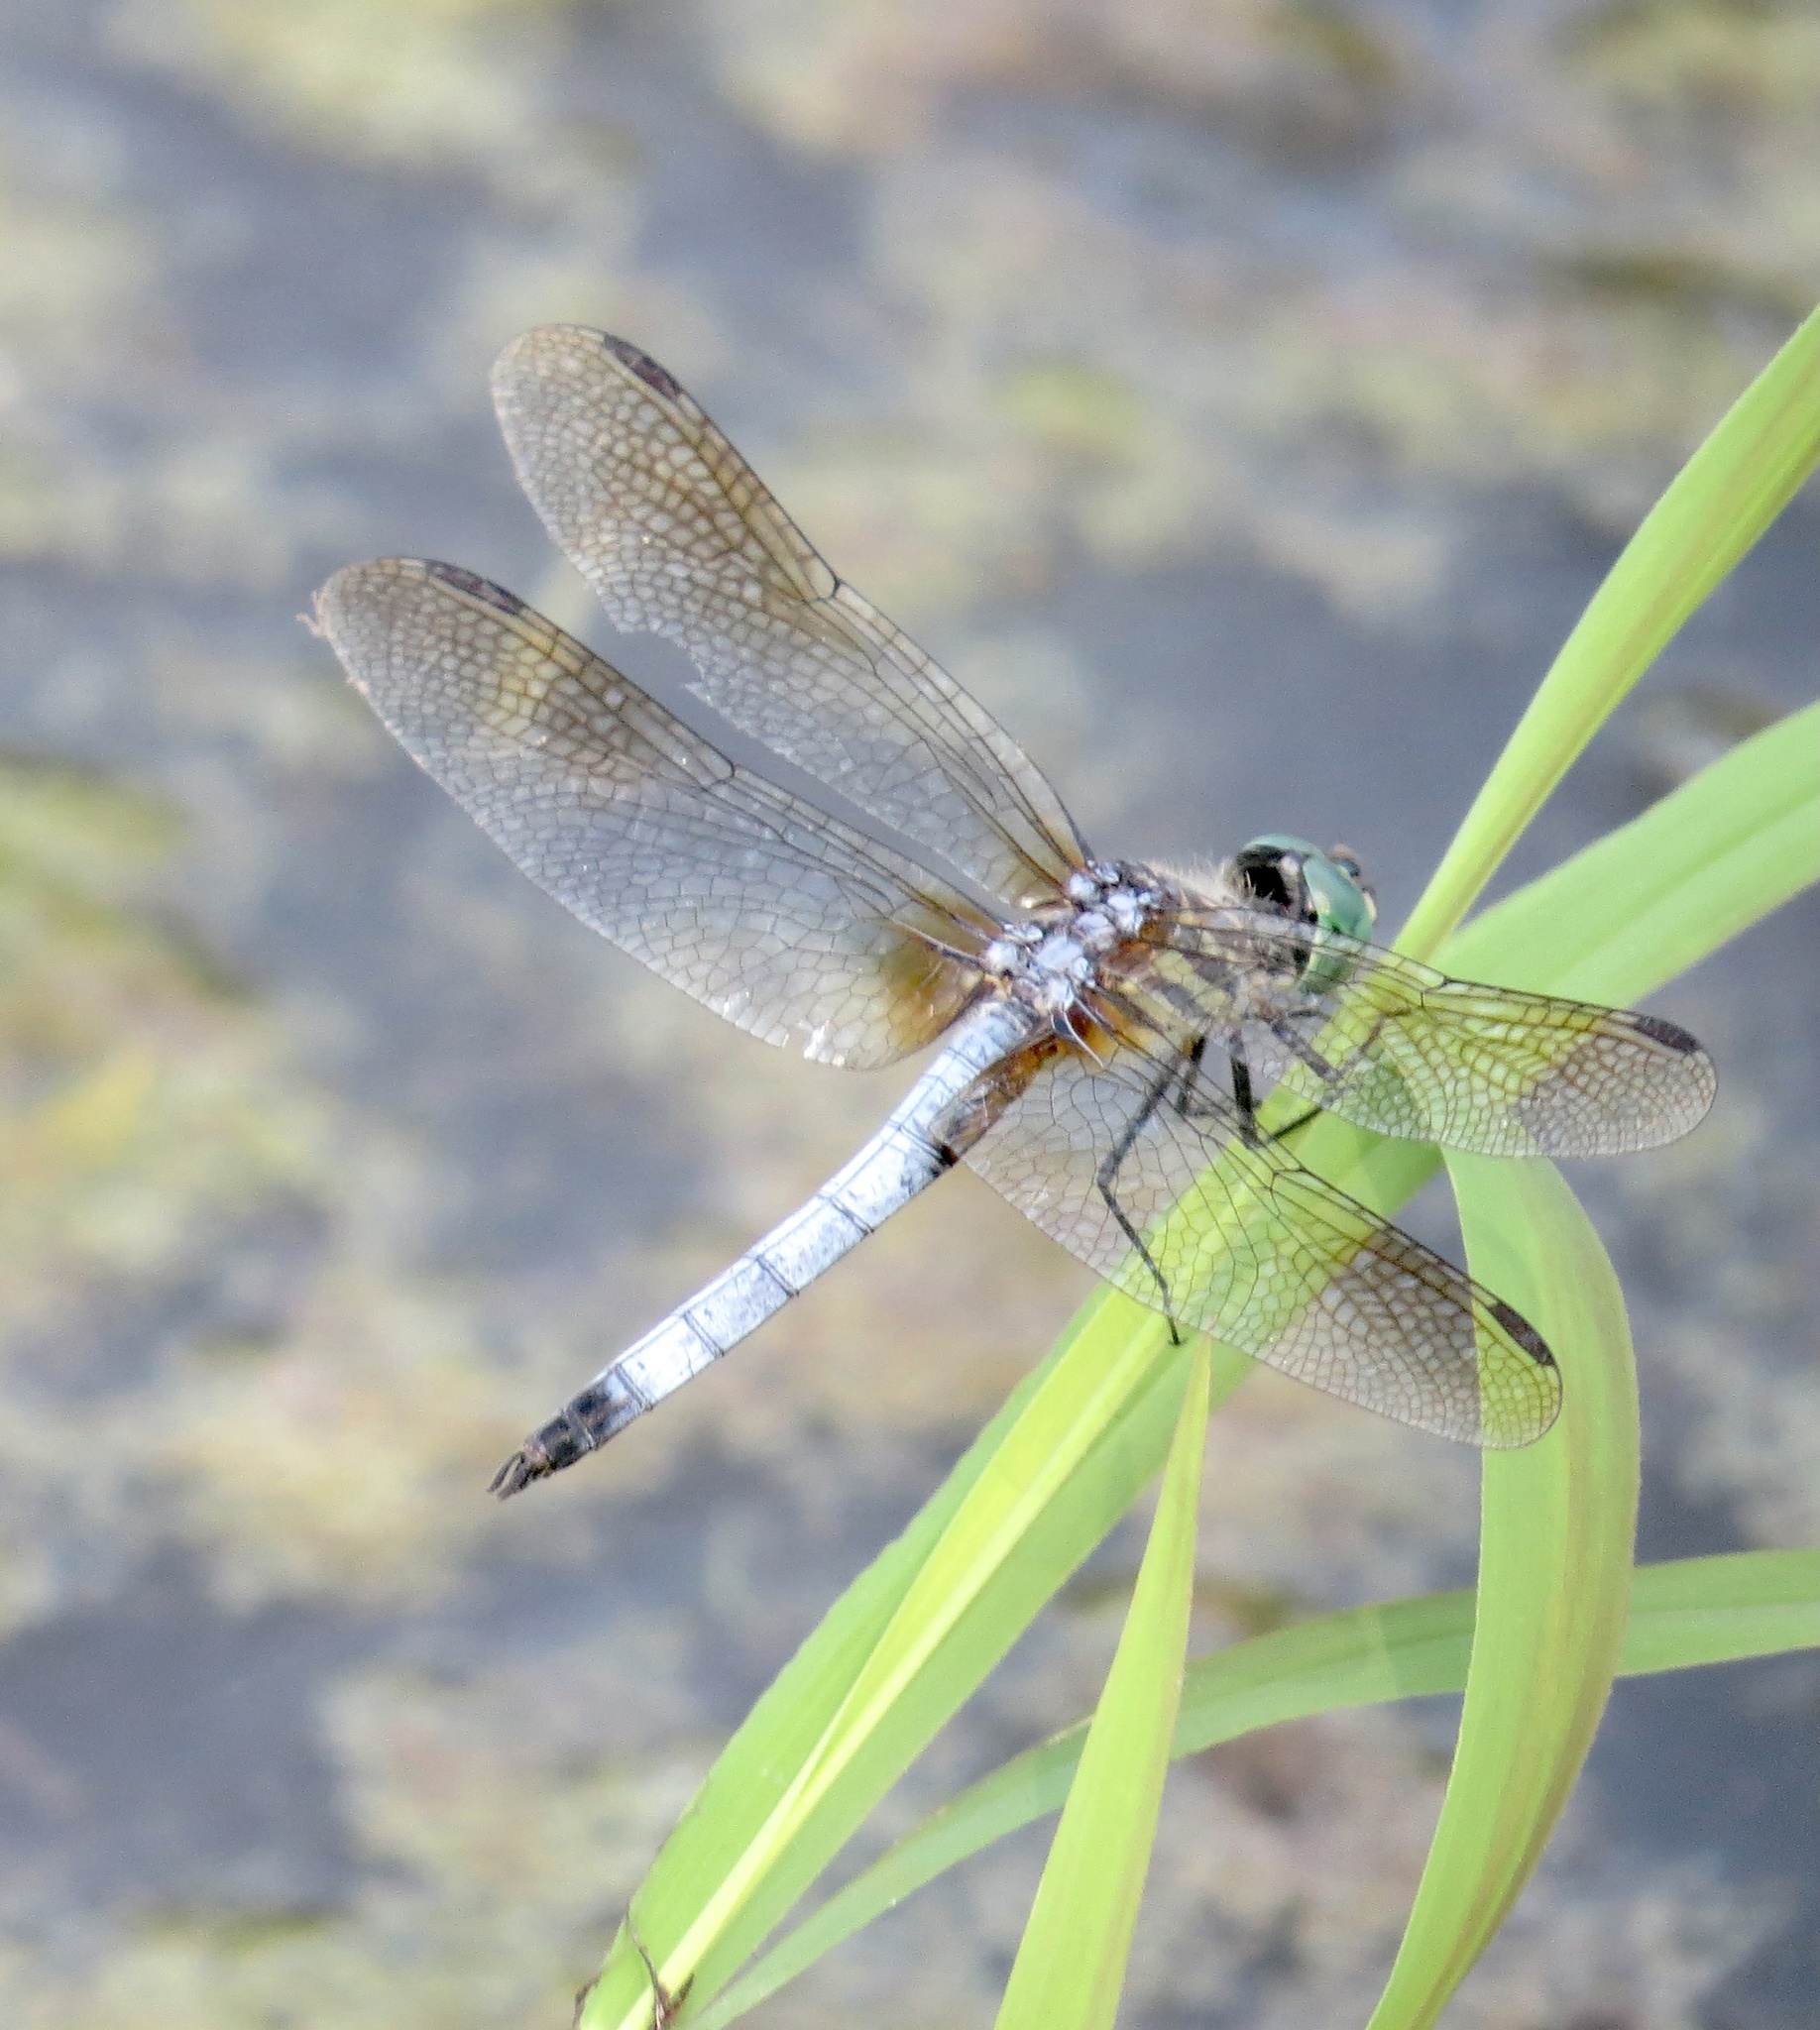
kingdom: Animalia
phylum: Arthropoda
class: Insecta
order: Odonata
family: Libellulidae
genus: Pachydiplax
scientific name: Pachydiplax longipennis
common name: Blue dasher
